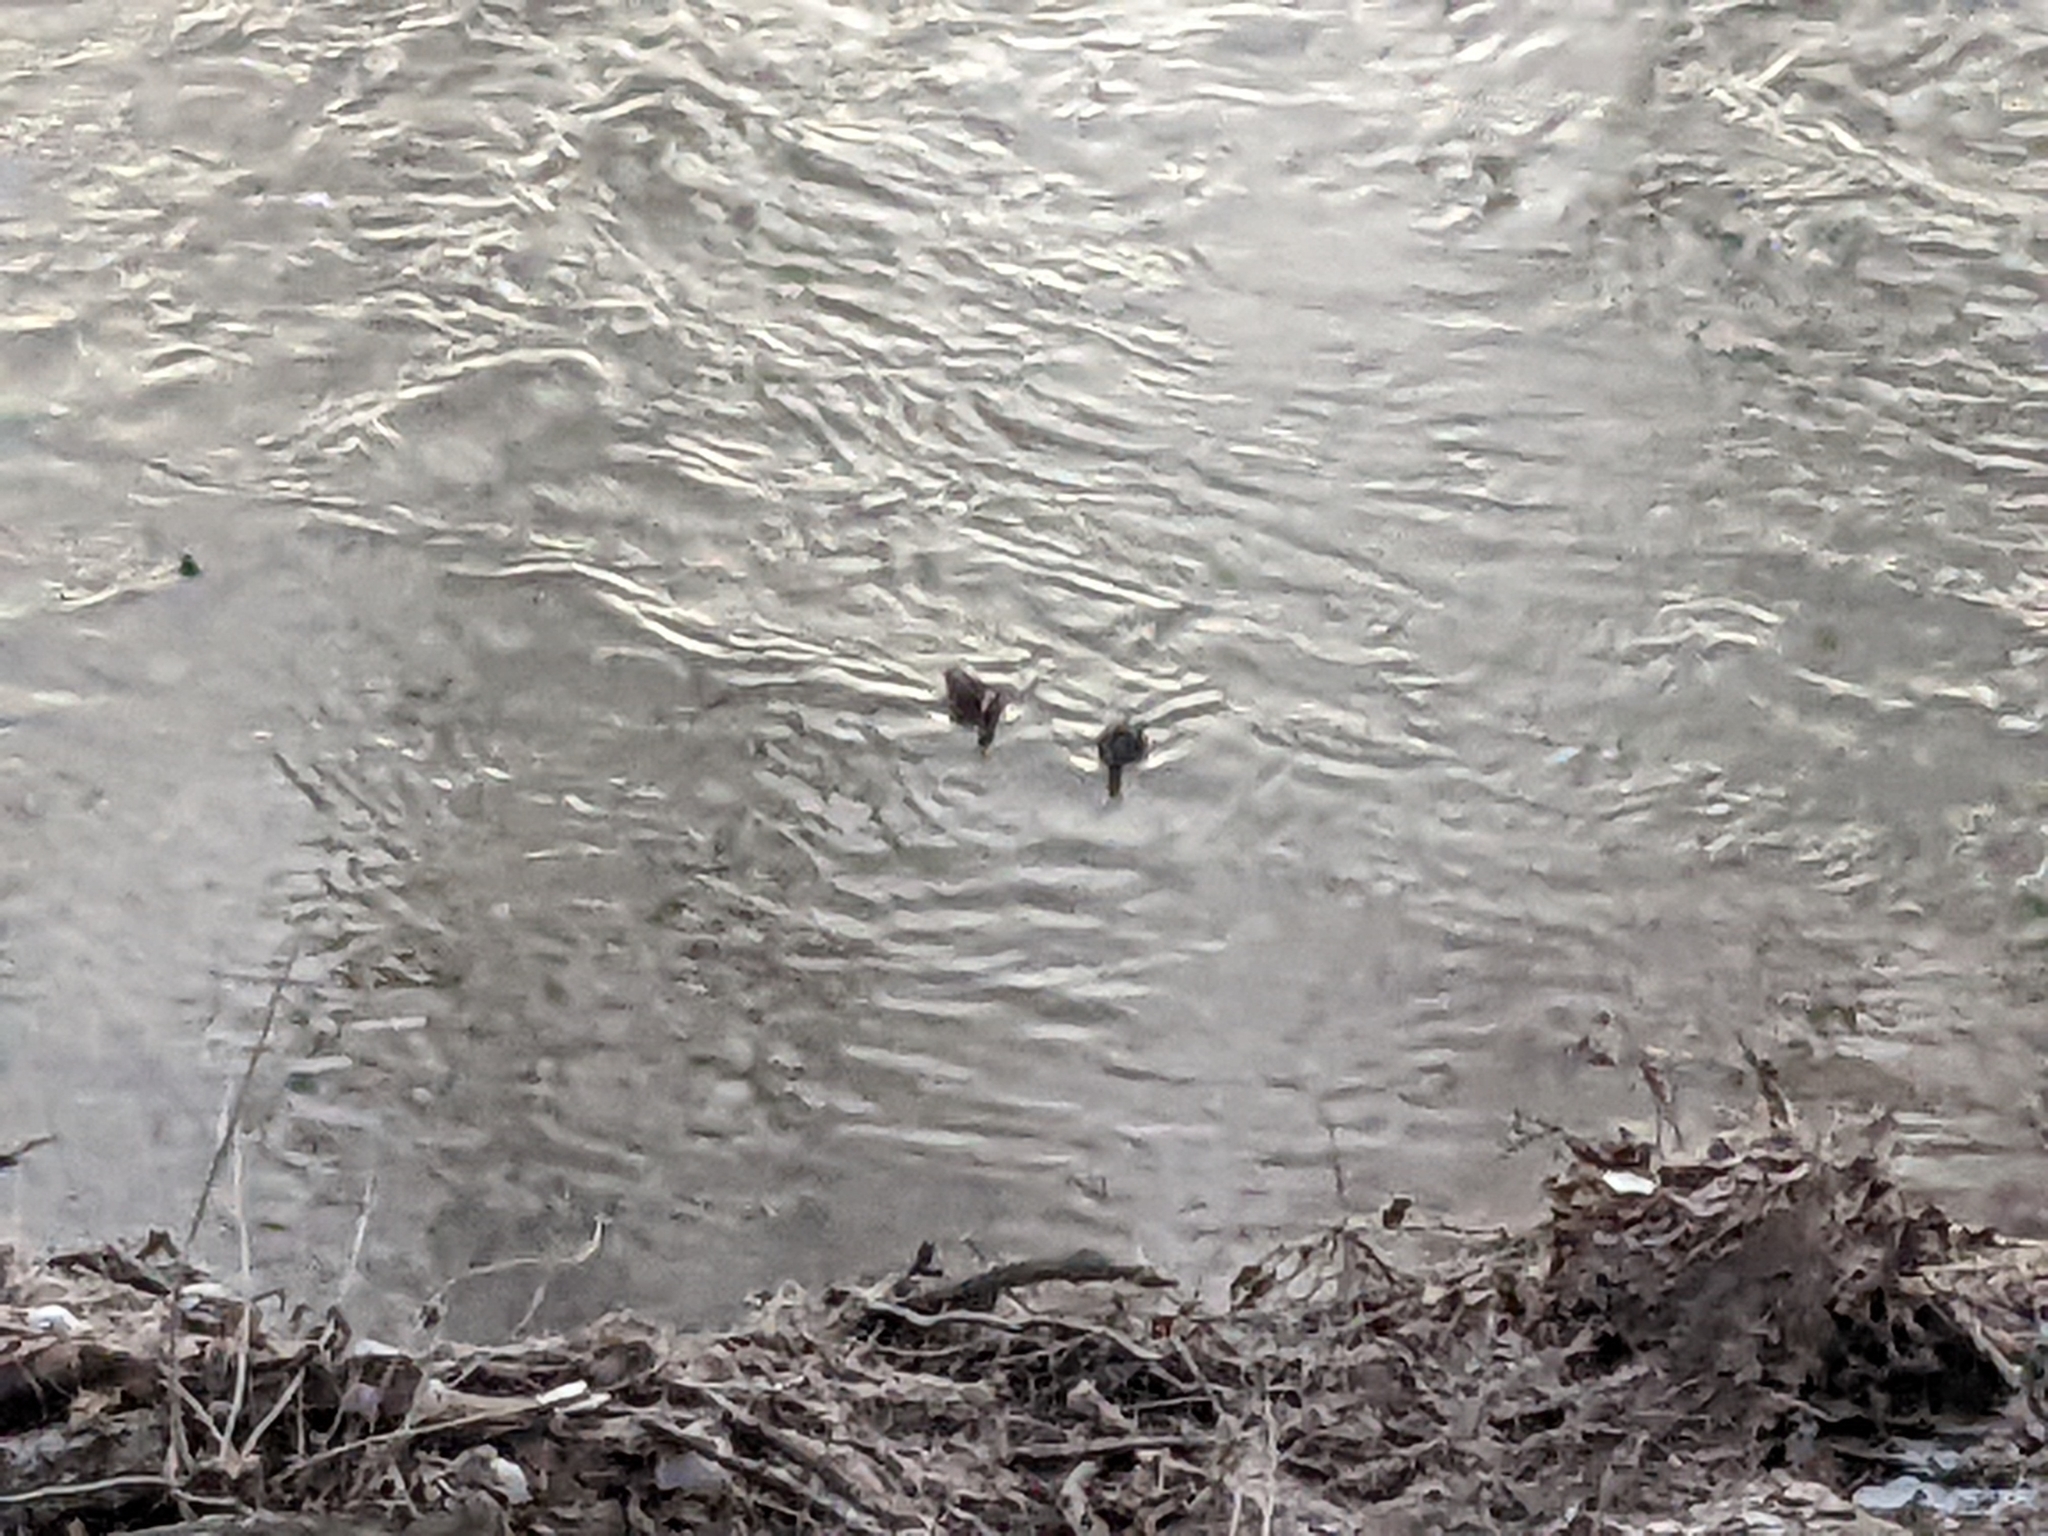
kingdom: Animalia
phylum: Chordata
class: Aves
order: Anseriformes
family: Anatidae
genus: Anas
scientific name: Anas rubripes
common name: American black duck
